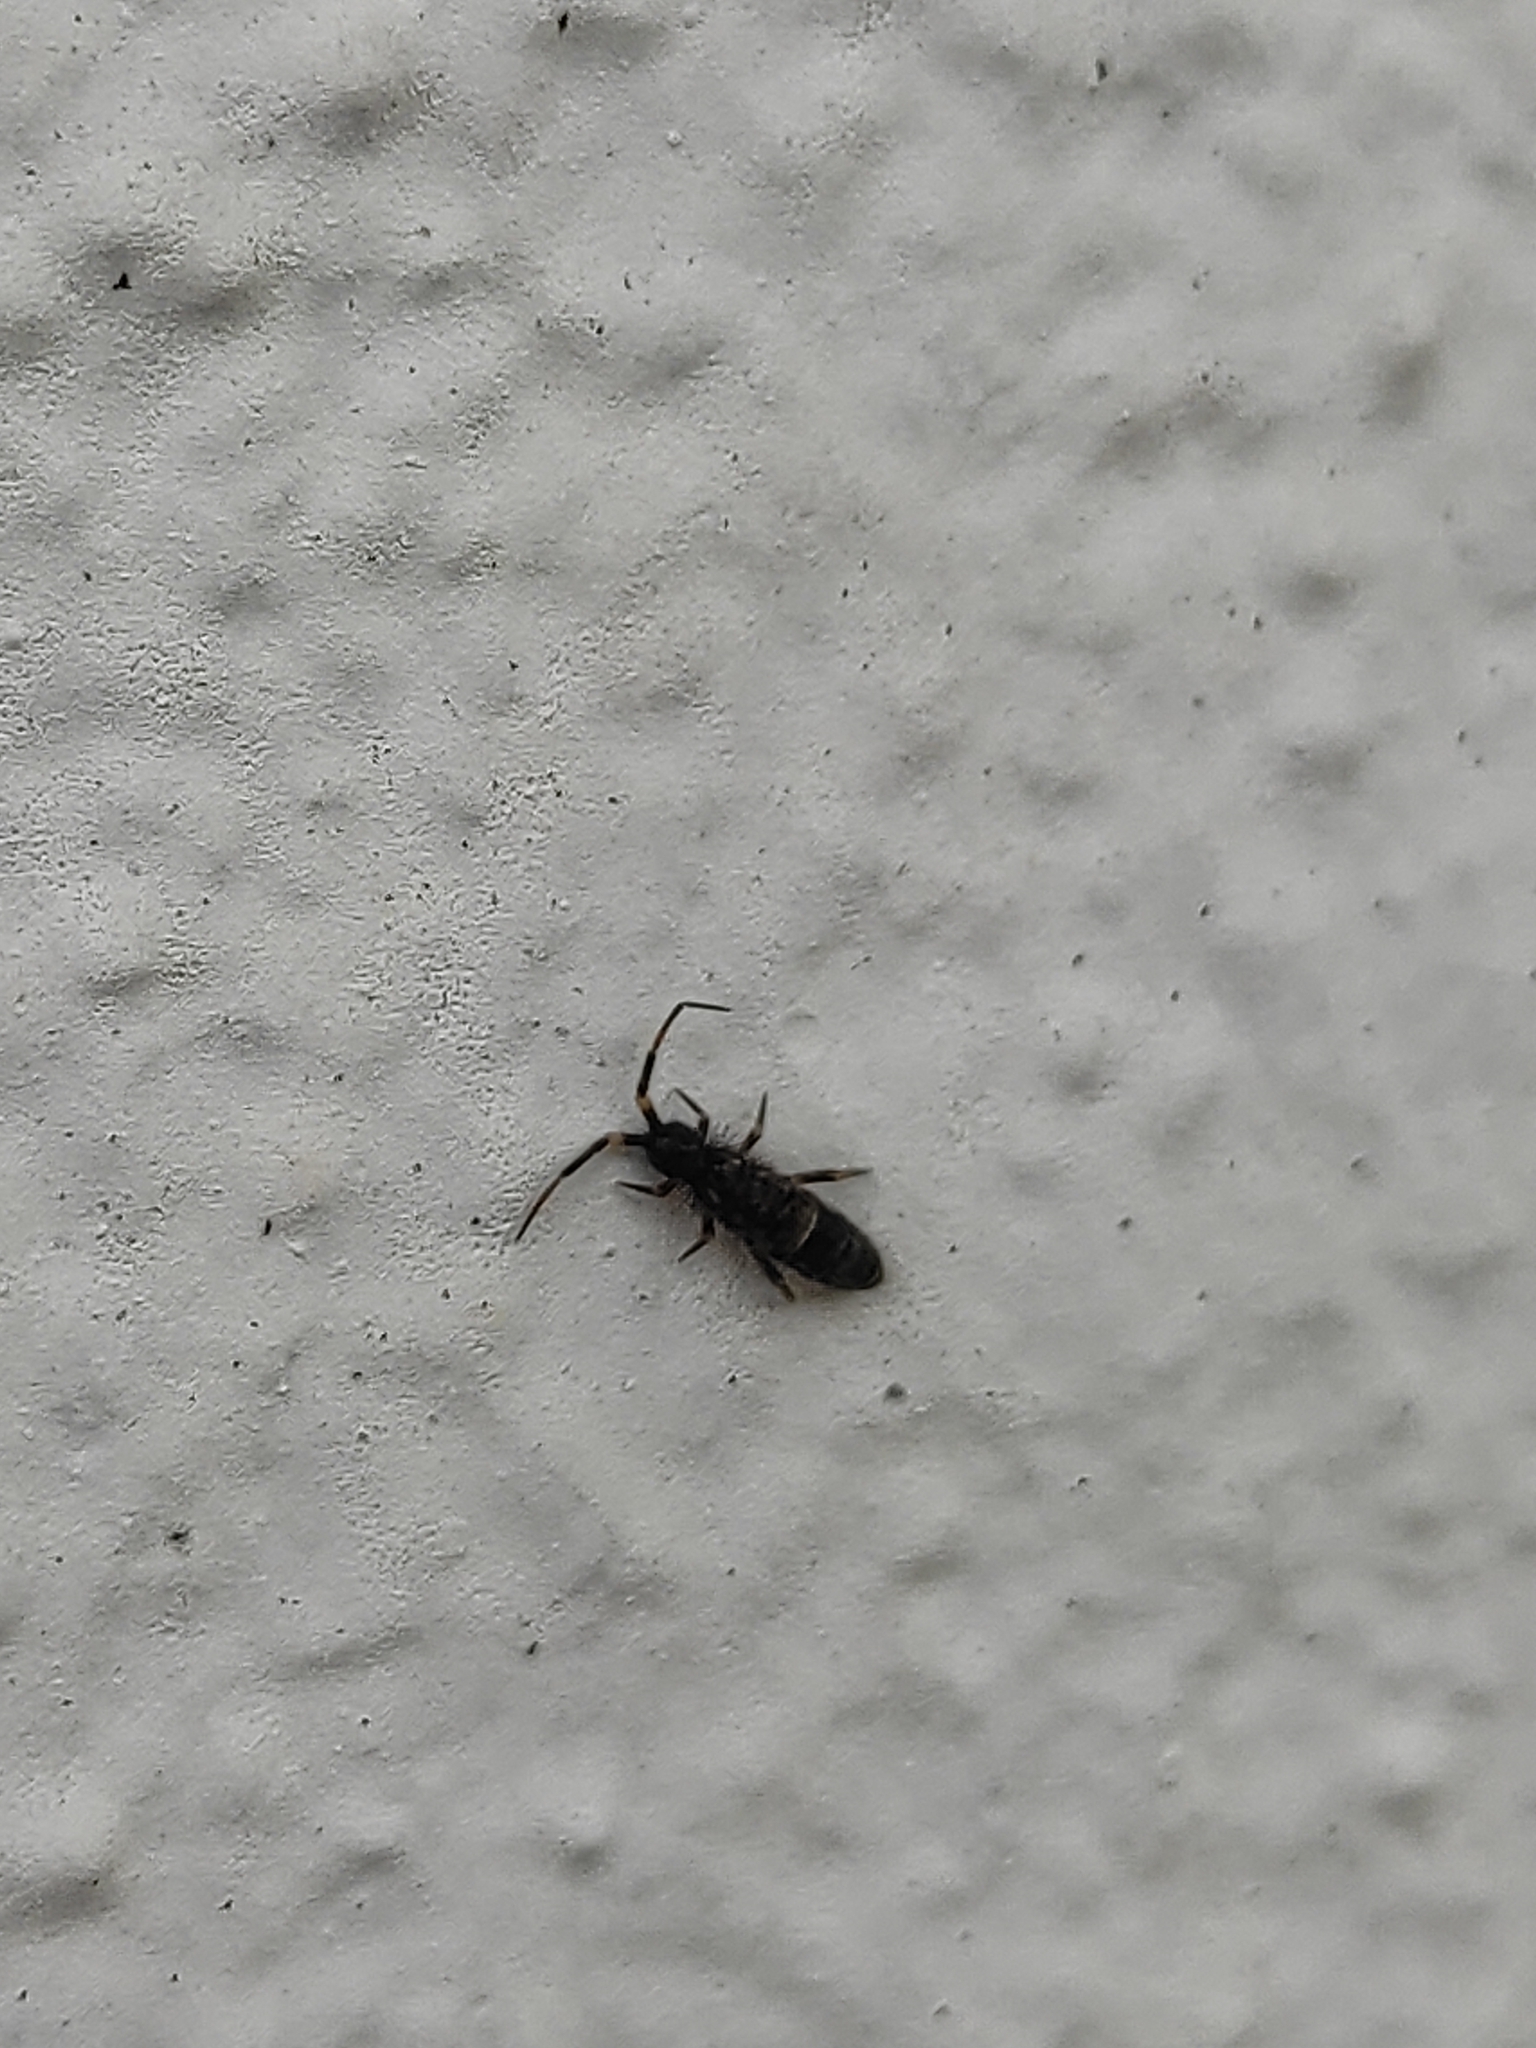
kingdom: Animalia
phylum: Arthropoda
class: Collembola
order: Entomobryomorpha
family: Orchesellidae
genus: Orchesella
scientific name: Orchesella cincta
